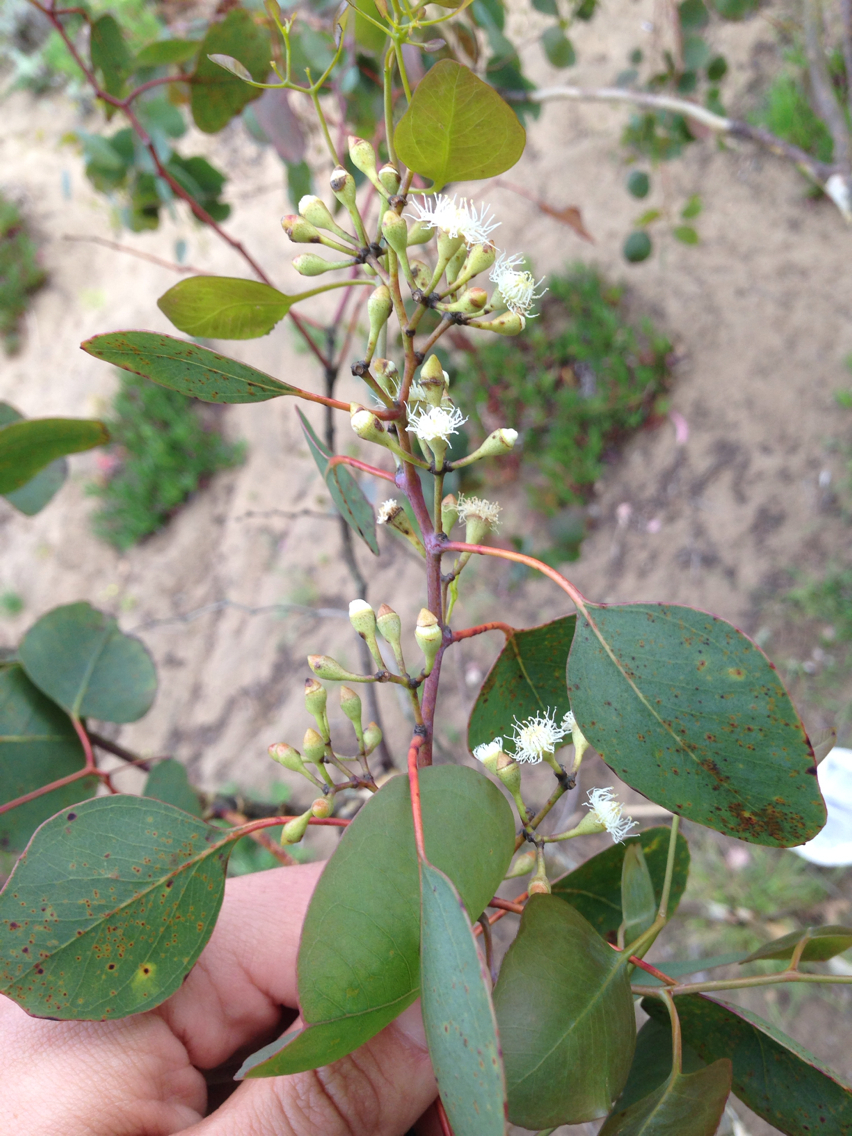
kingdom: Plantae
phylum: Tracheophyta
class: Magnoliopsida
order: Myrtales
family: Myrtaceae
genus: Eucalyptus
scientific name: Eucalyptus polyanthemos
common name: Red-box
